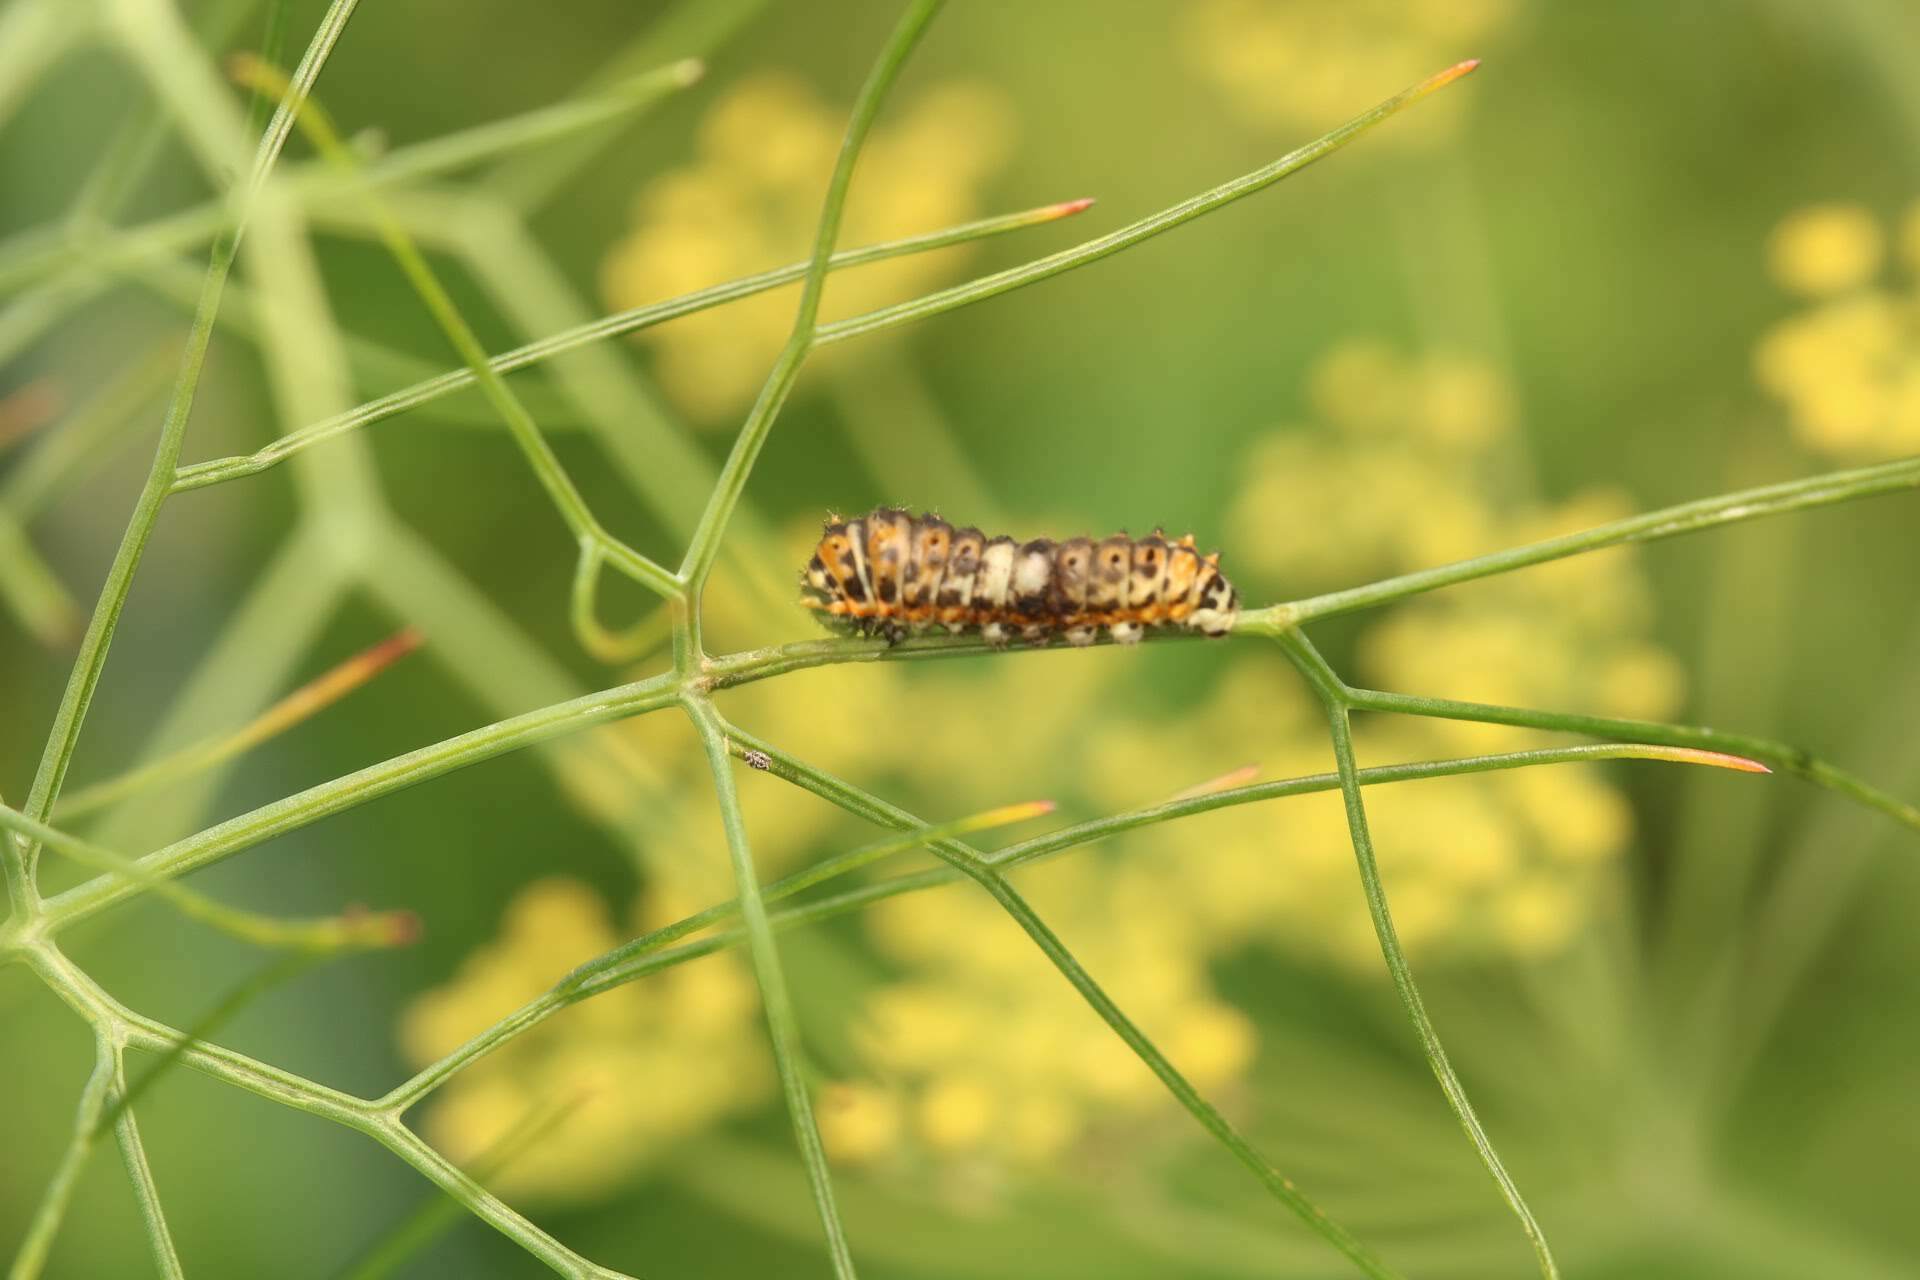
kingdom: Animalia
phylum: Arthropoda
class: Insecta
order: Lepidoptera
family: Papilionidae
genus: Papilio
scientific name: Papilio machaon
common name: Swallowtail
